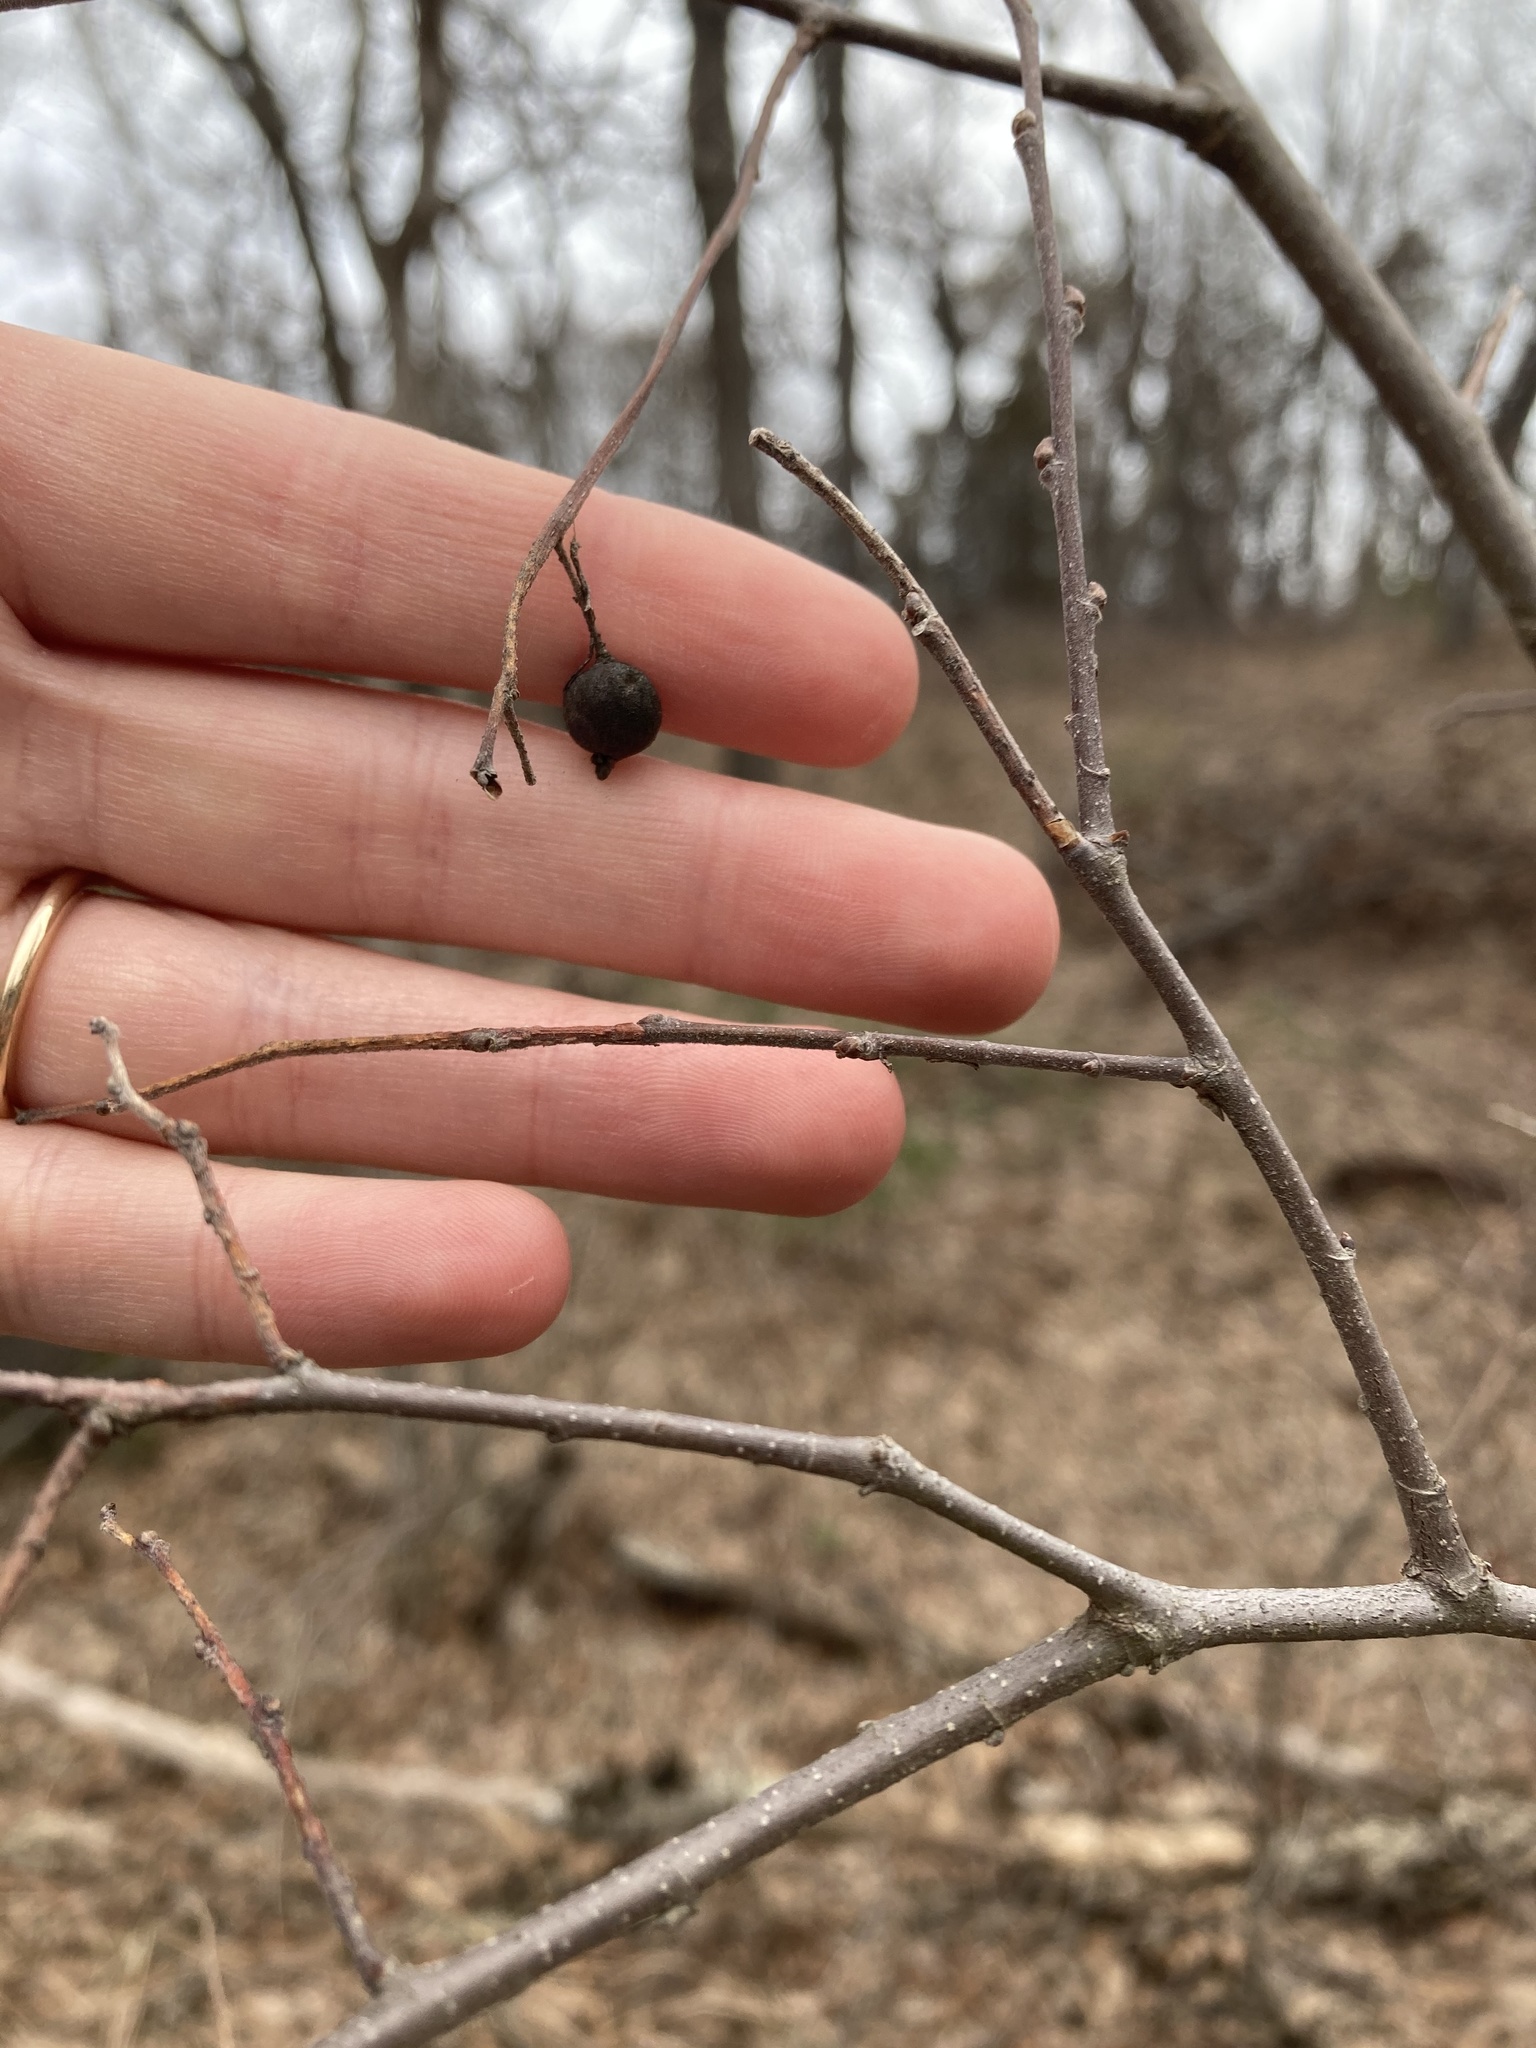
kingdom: Plantae
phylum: Tracheophyta
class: Magnoliopsida
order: Rosales
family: Cannabaceae
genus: Celtis
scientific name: Celtis tenuifolia
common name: Georgia hackberry
